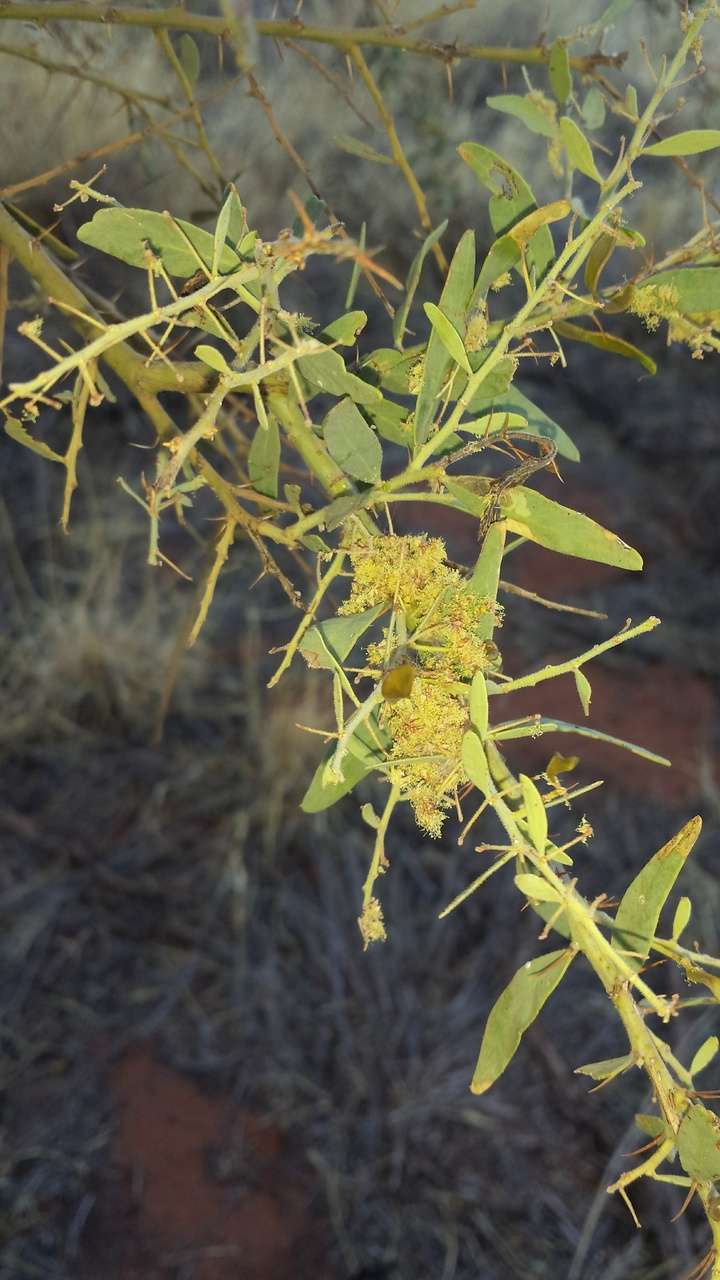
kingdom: Plantae
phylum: Tracheophyta
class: Magnoliopsida
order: Fabales
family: Fabaceae
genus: Acacia
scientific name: Acacia victoriae
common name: Bramble wattle
